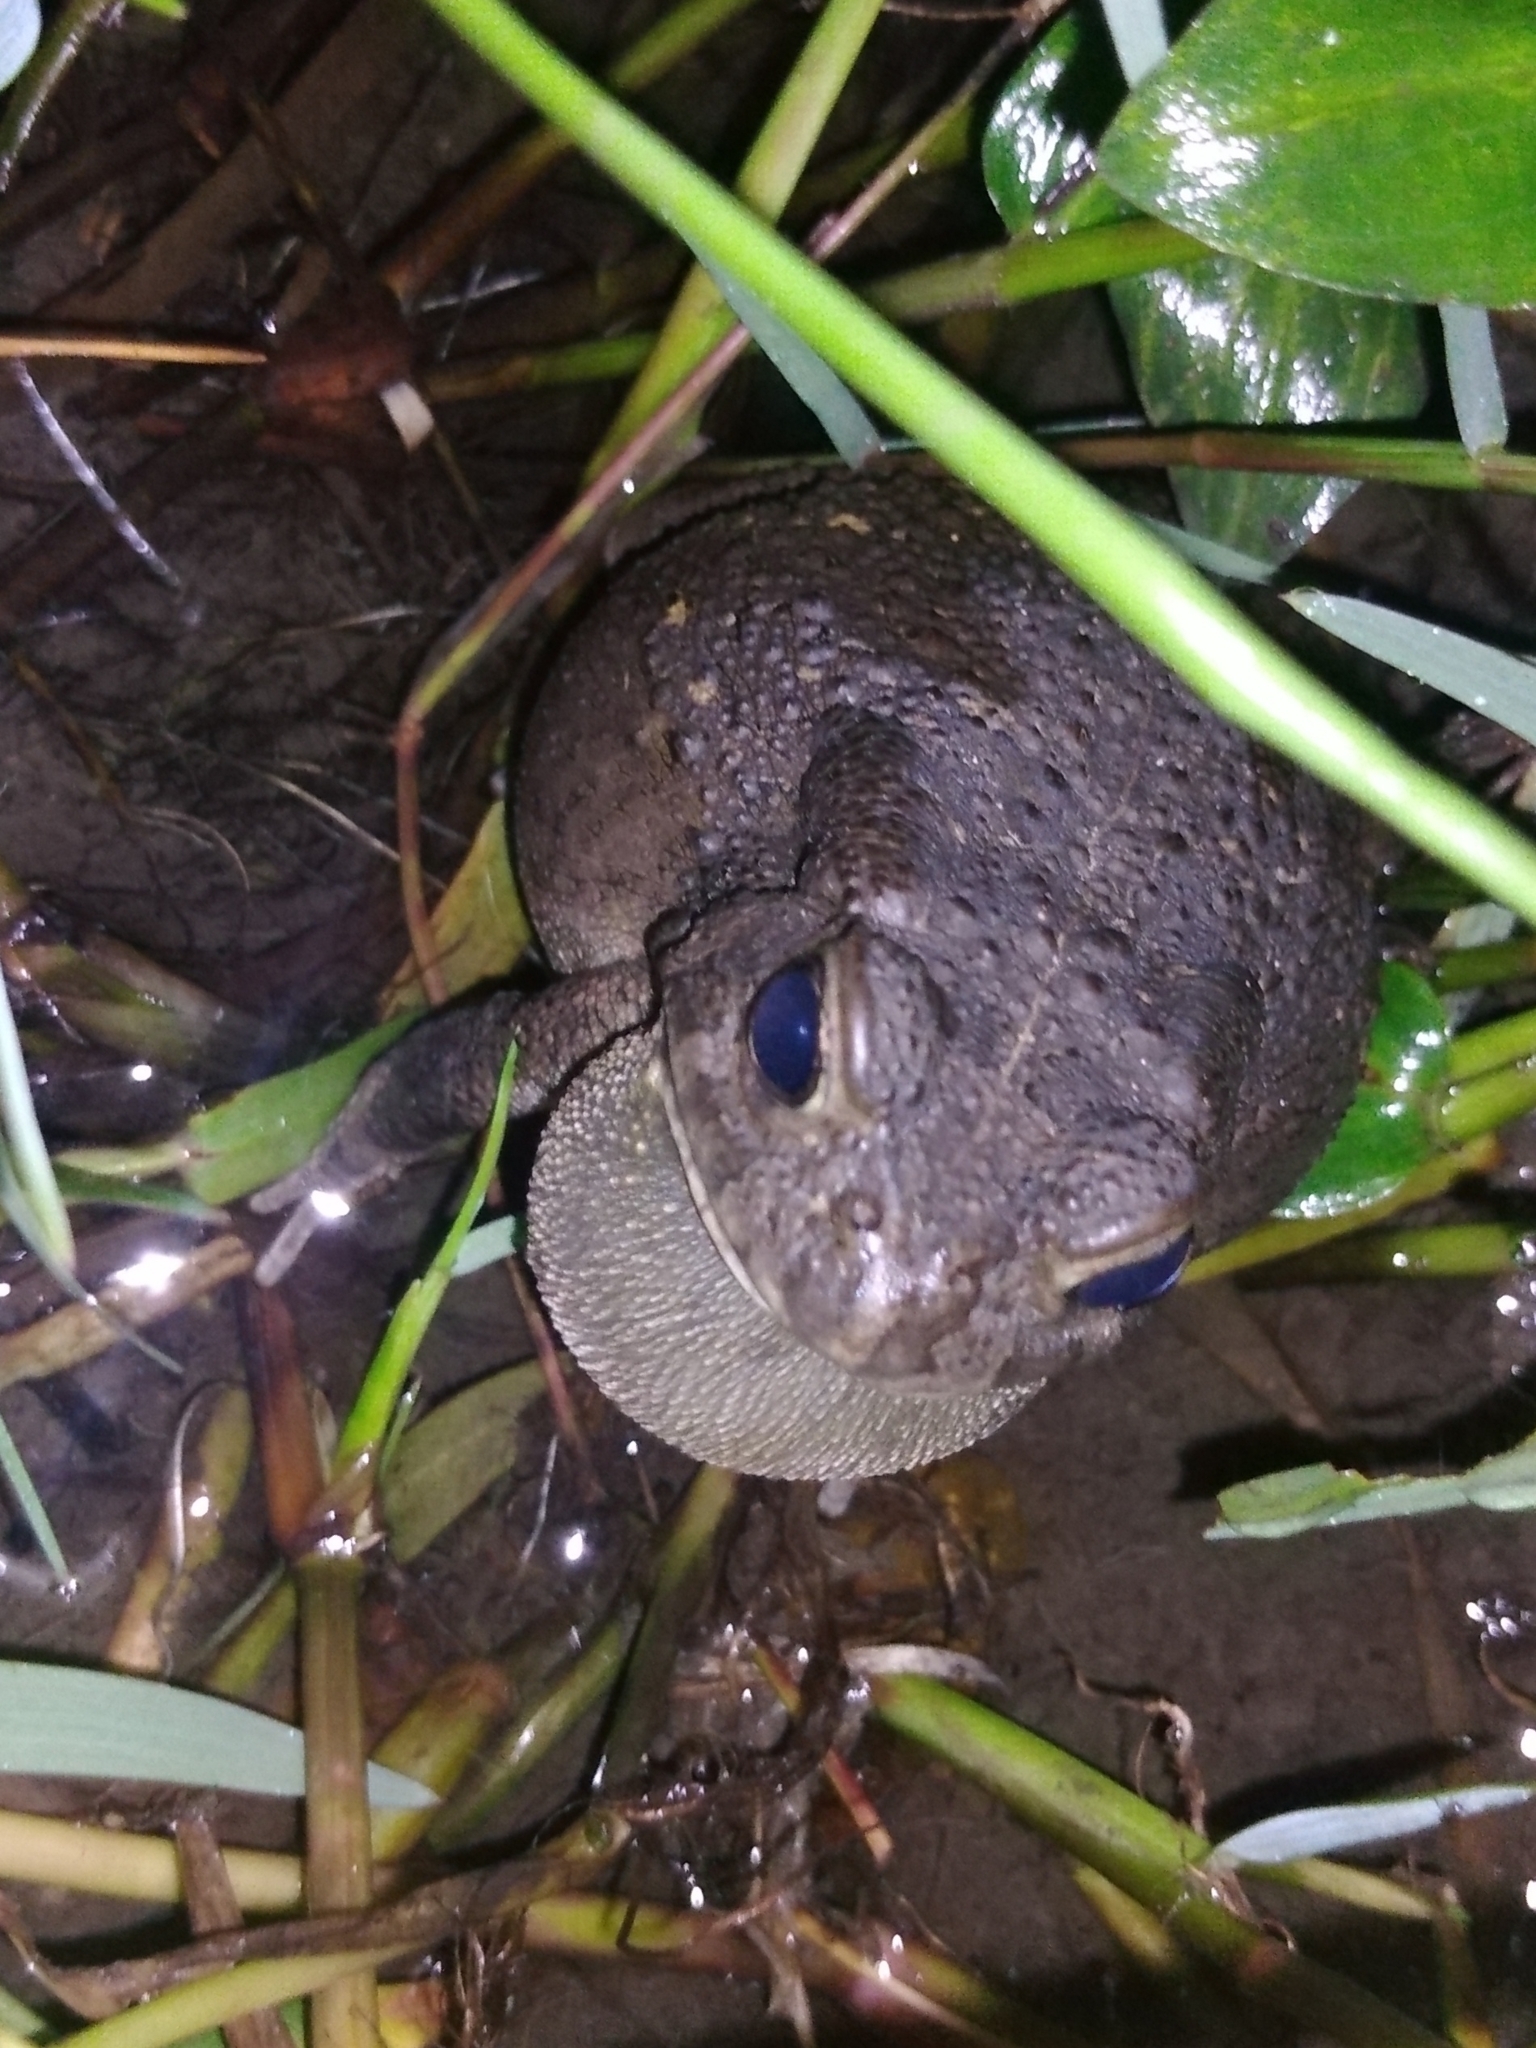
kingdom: Animalia
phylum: Chordata
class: Amphibia
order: Anura
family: Bufonidae
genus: Sclerophrys
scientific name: Sclerophrys gutturalis
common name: African common toad
